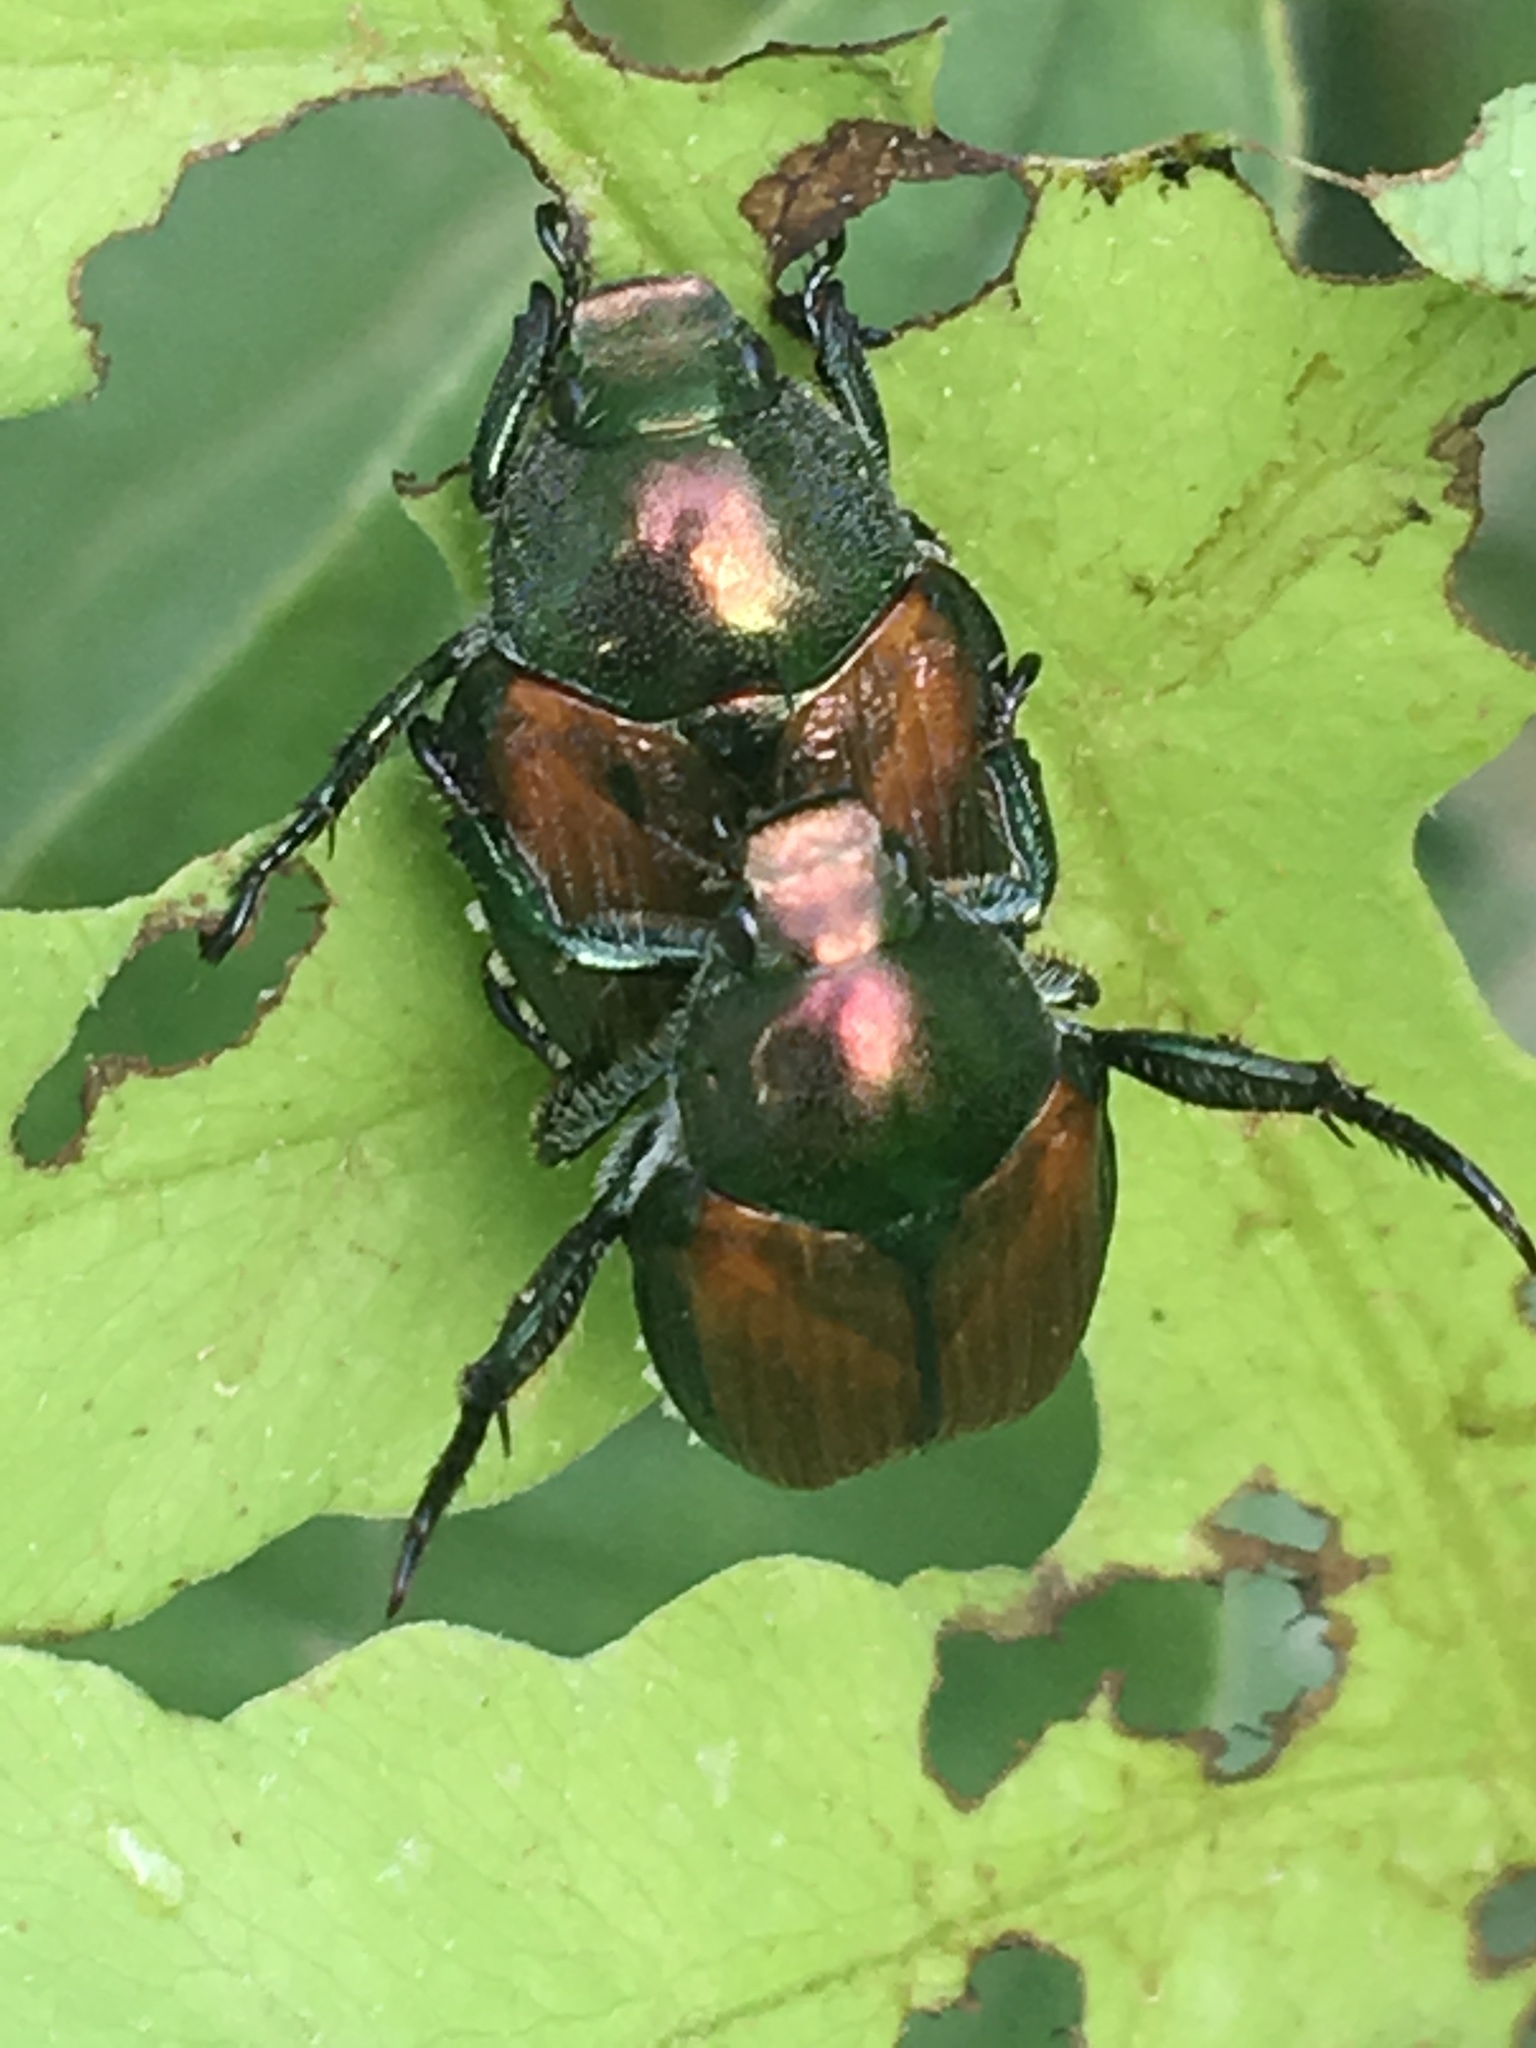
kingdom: Animalia
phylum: Arthropoda
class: Insecta
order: Coleoptera
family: Scarabaeidae
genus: Popillia
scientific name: Popillia japonica
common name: Japanese beetle
